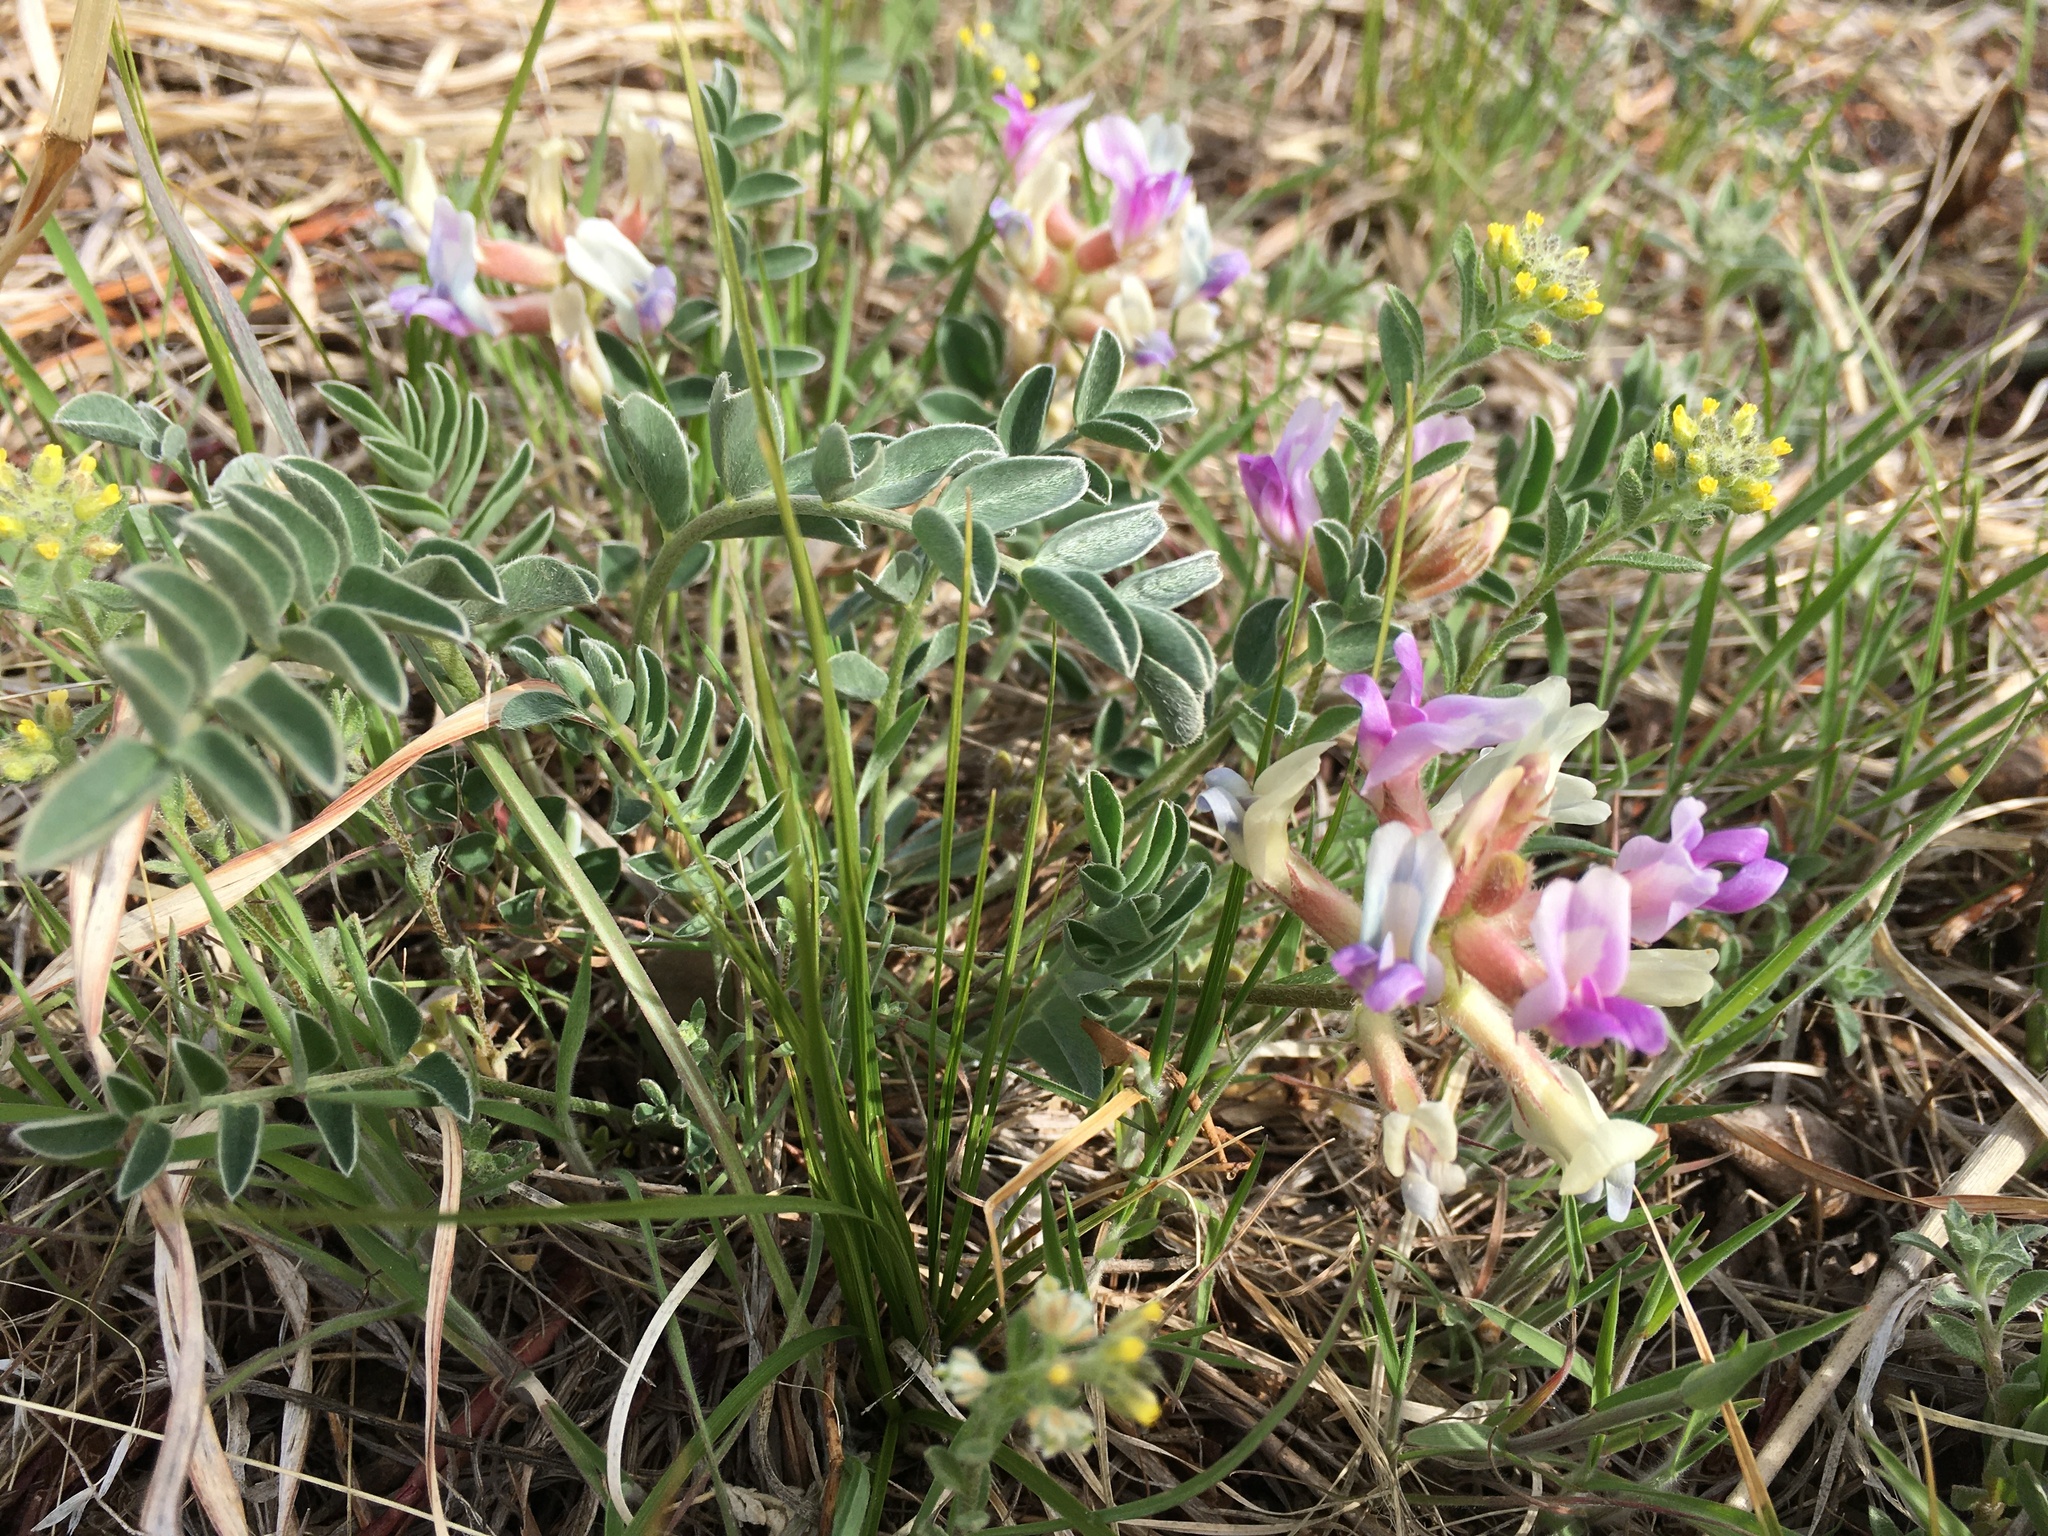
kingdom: Plantae
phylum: Tracheophyta
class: Magnoliopsida
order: Fabales
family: Fabaceae
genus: Astragalus
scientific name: Astragalus shortianus
